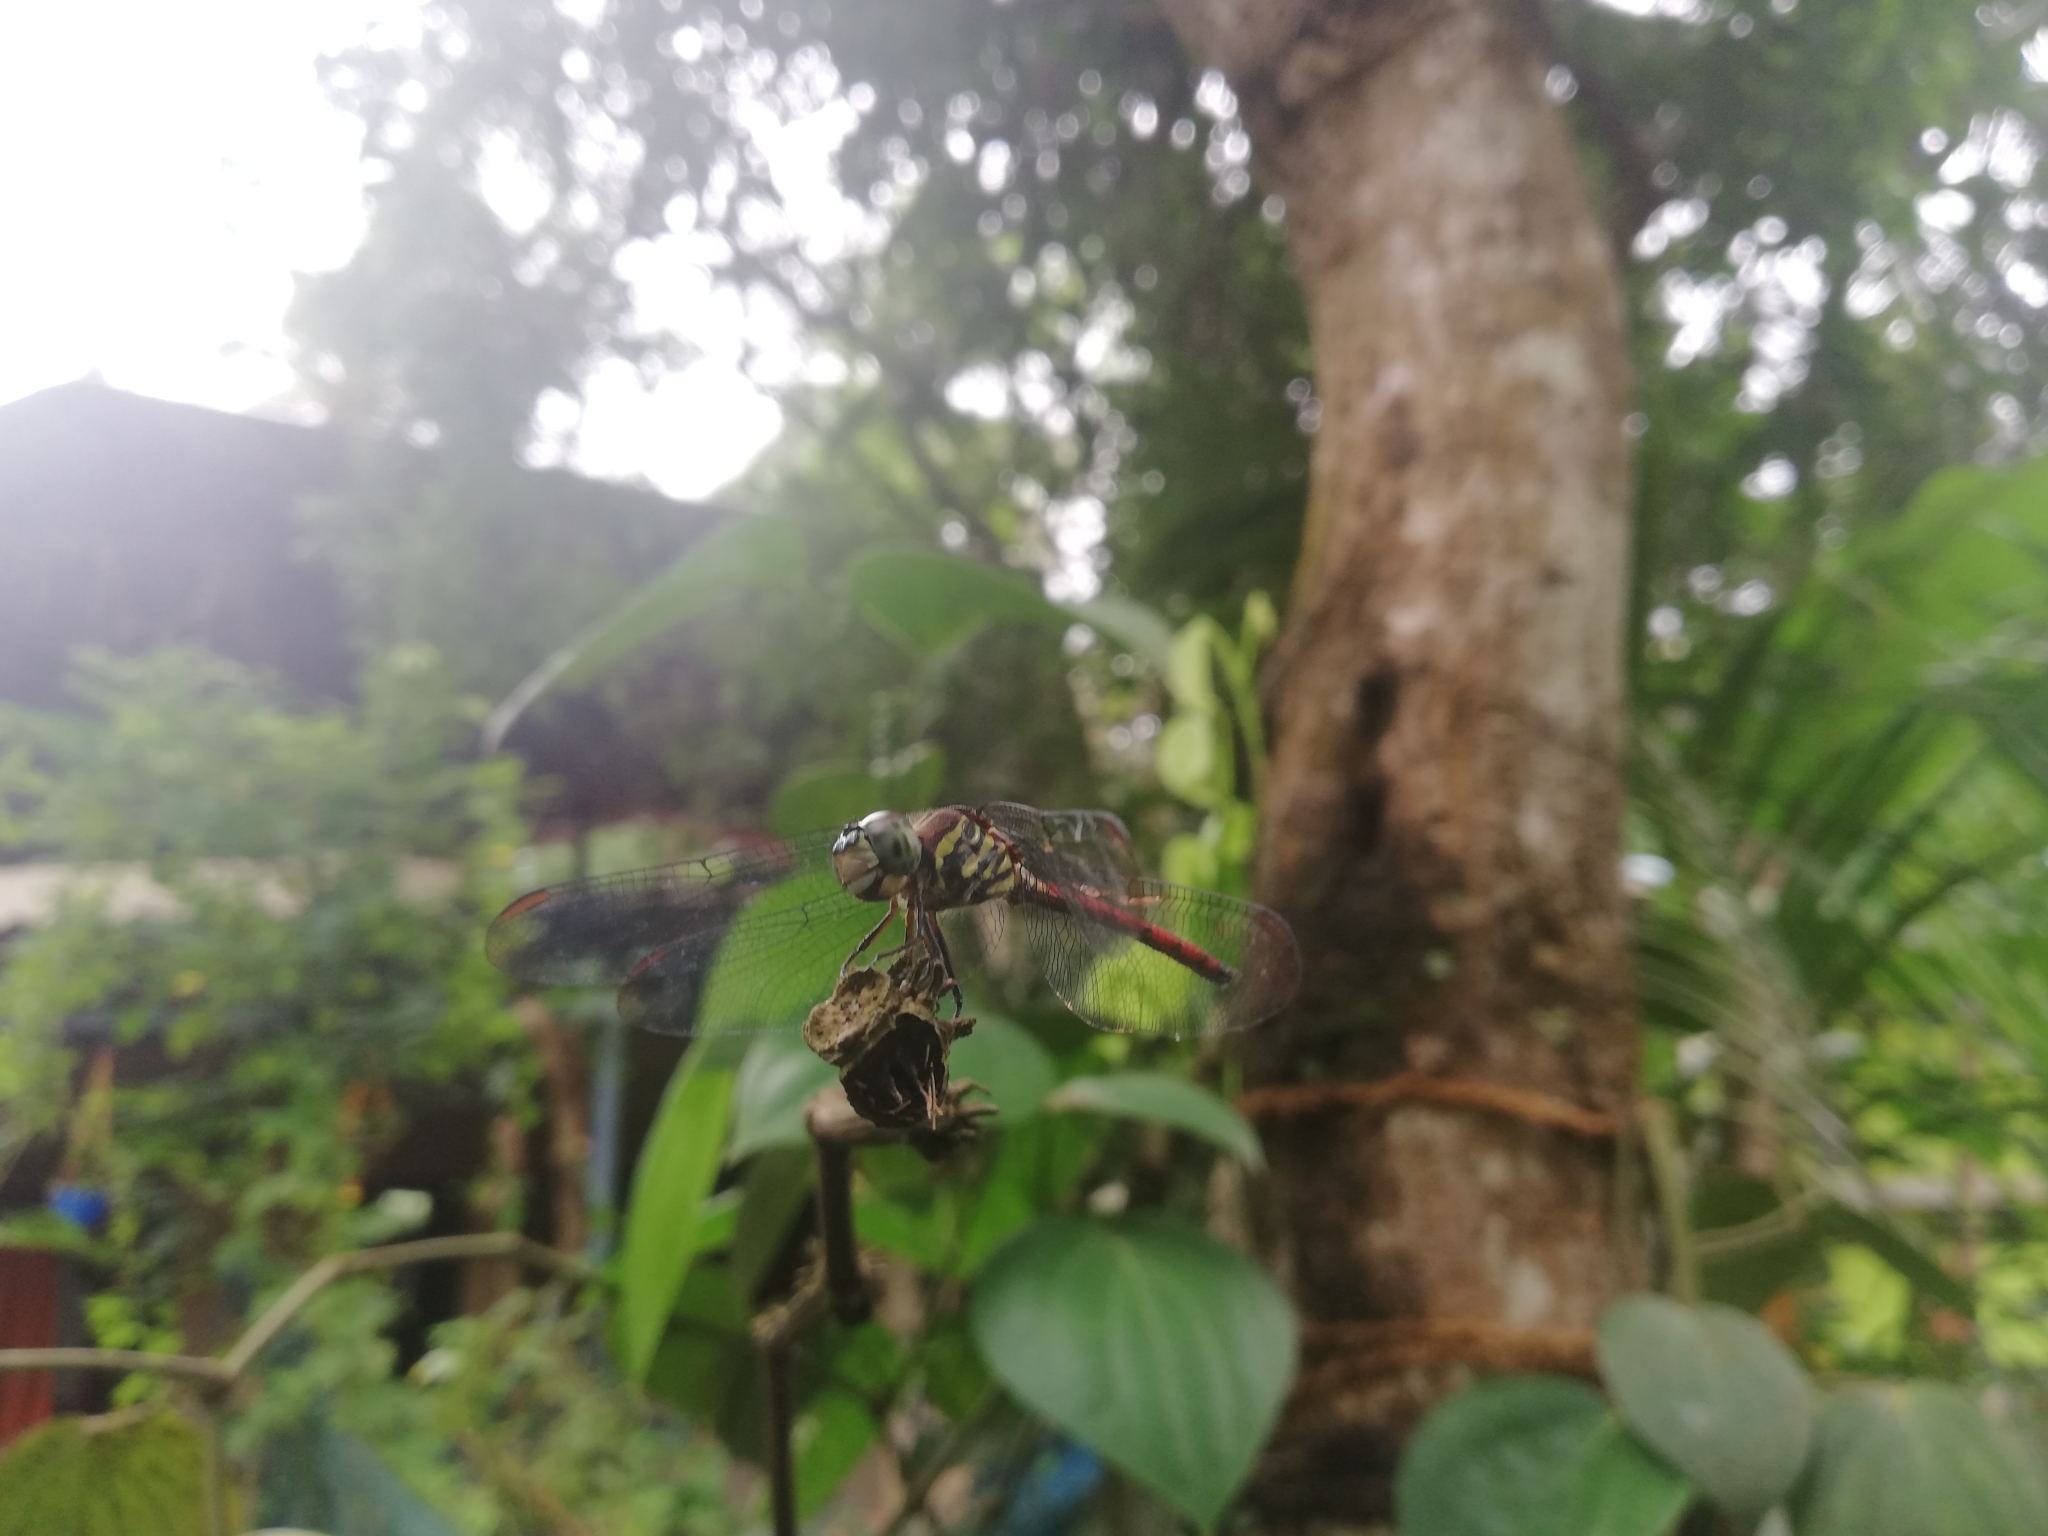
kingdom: Animalia
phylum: Arthropoda
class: Insecta
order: Odonata
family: Libellulidae
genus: Lathrecista
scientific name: Lathrecista asiatica
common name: Scarlet grenadier
